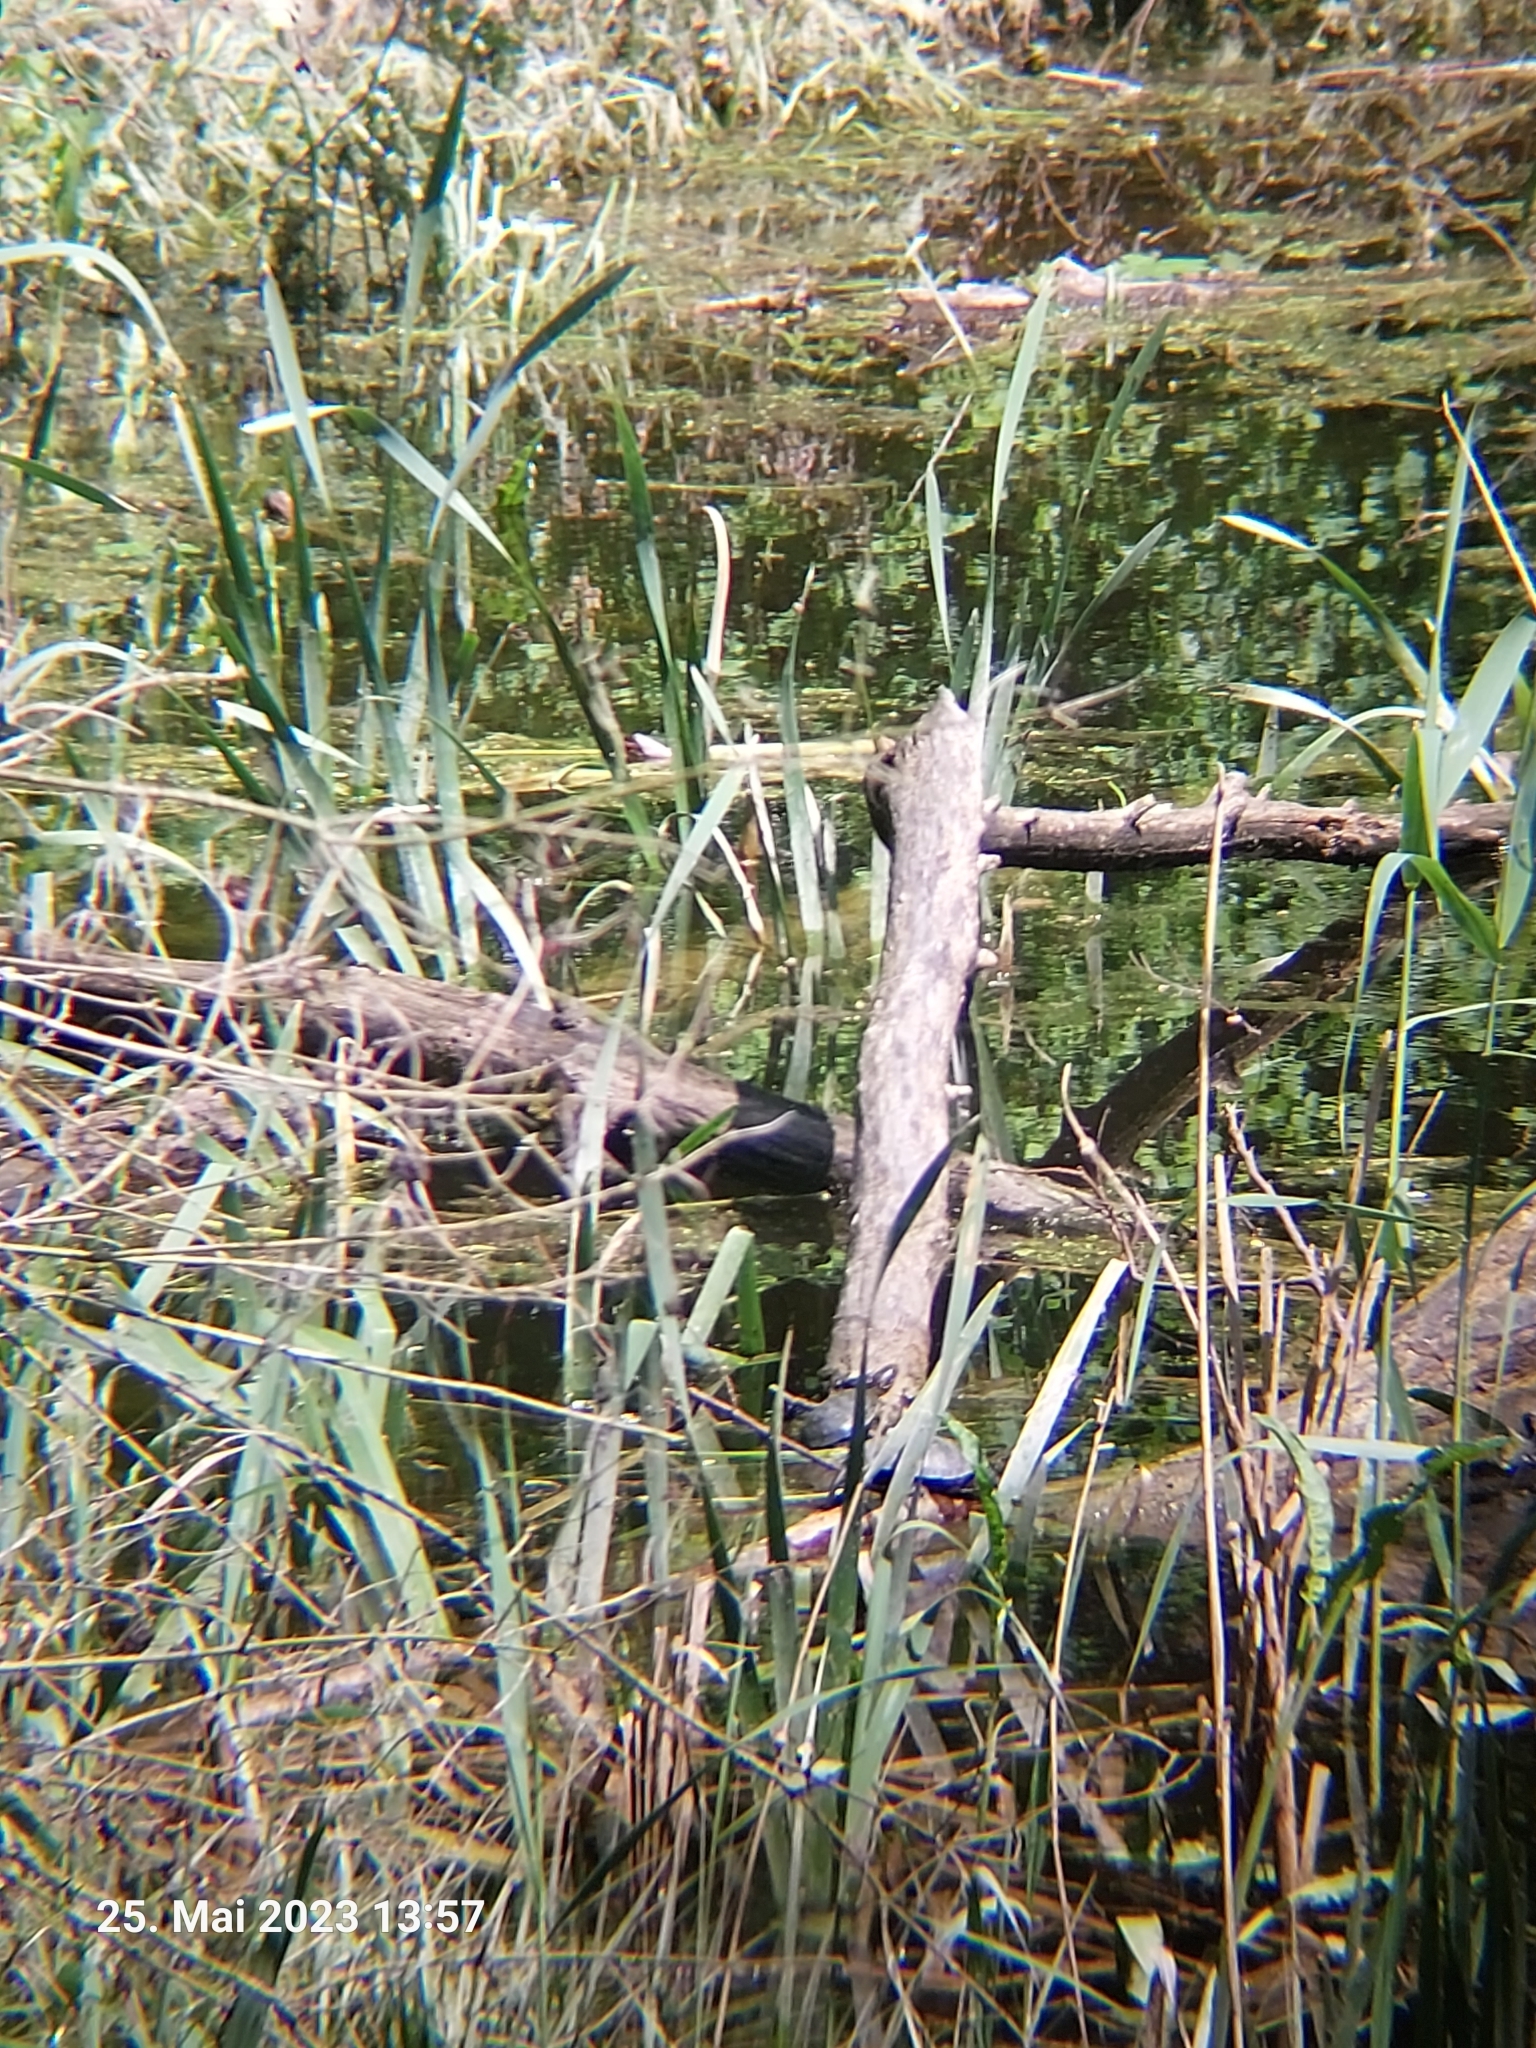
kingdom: Animalia
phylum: Chordata
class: Testudines
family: Emydidae
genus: Emys
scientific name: Emys orbicularis
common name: European pond turtle
